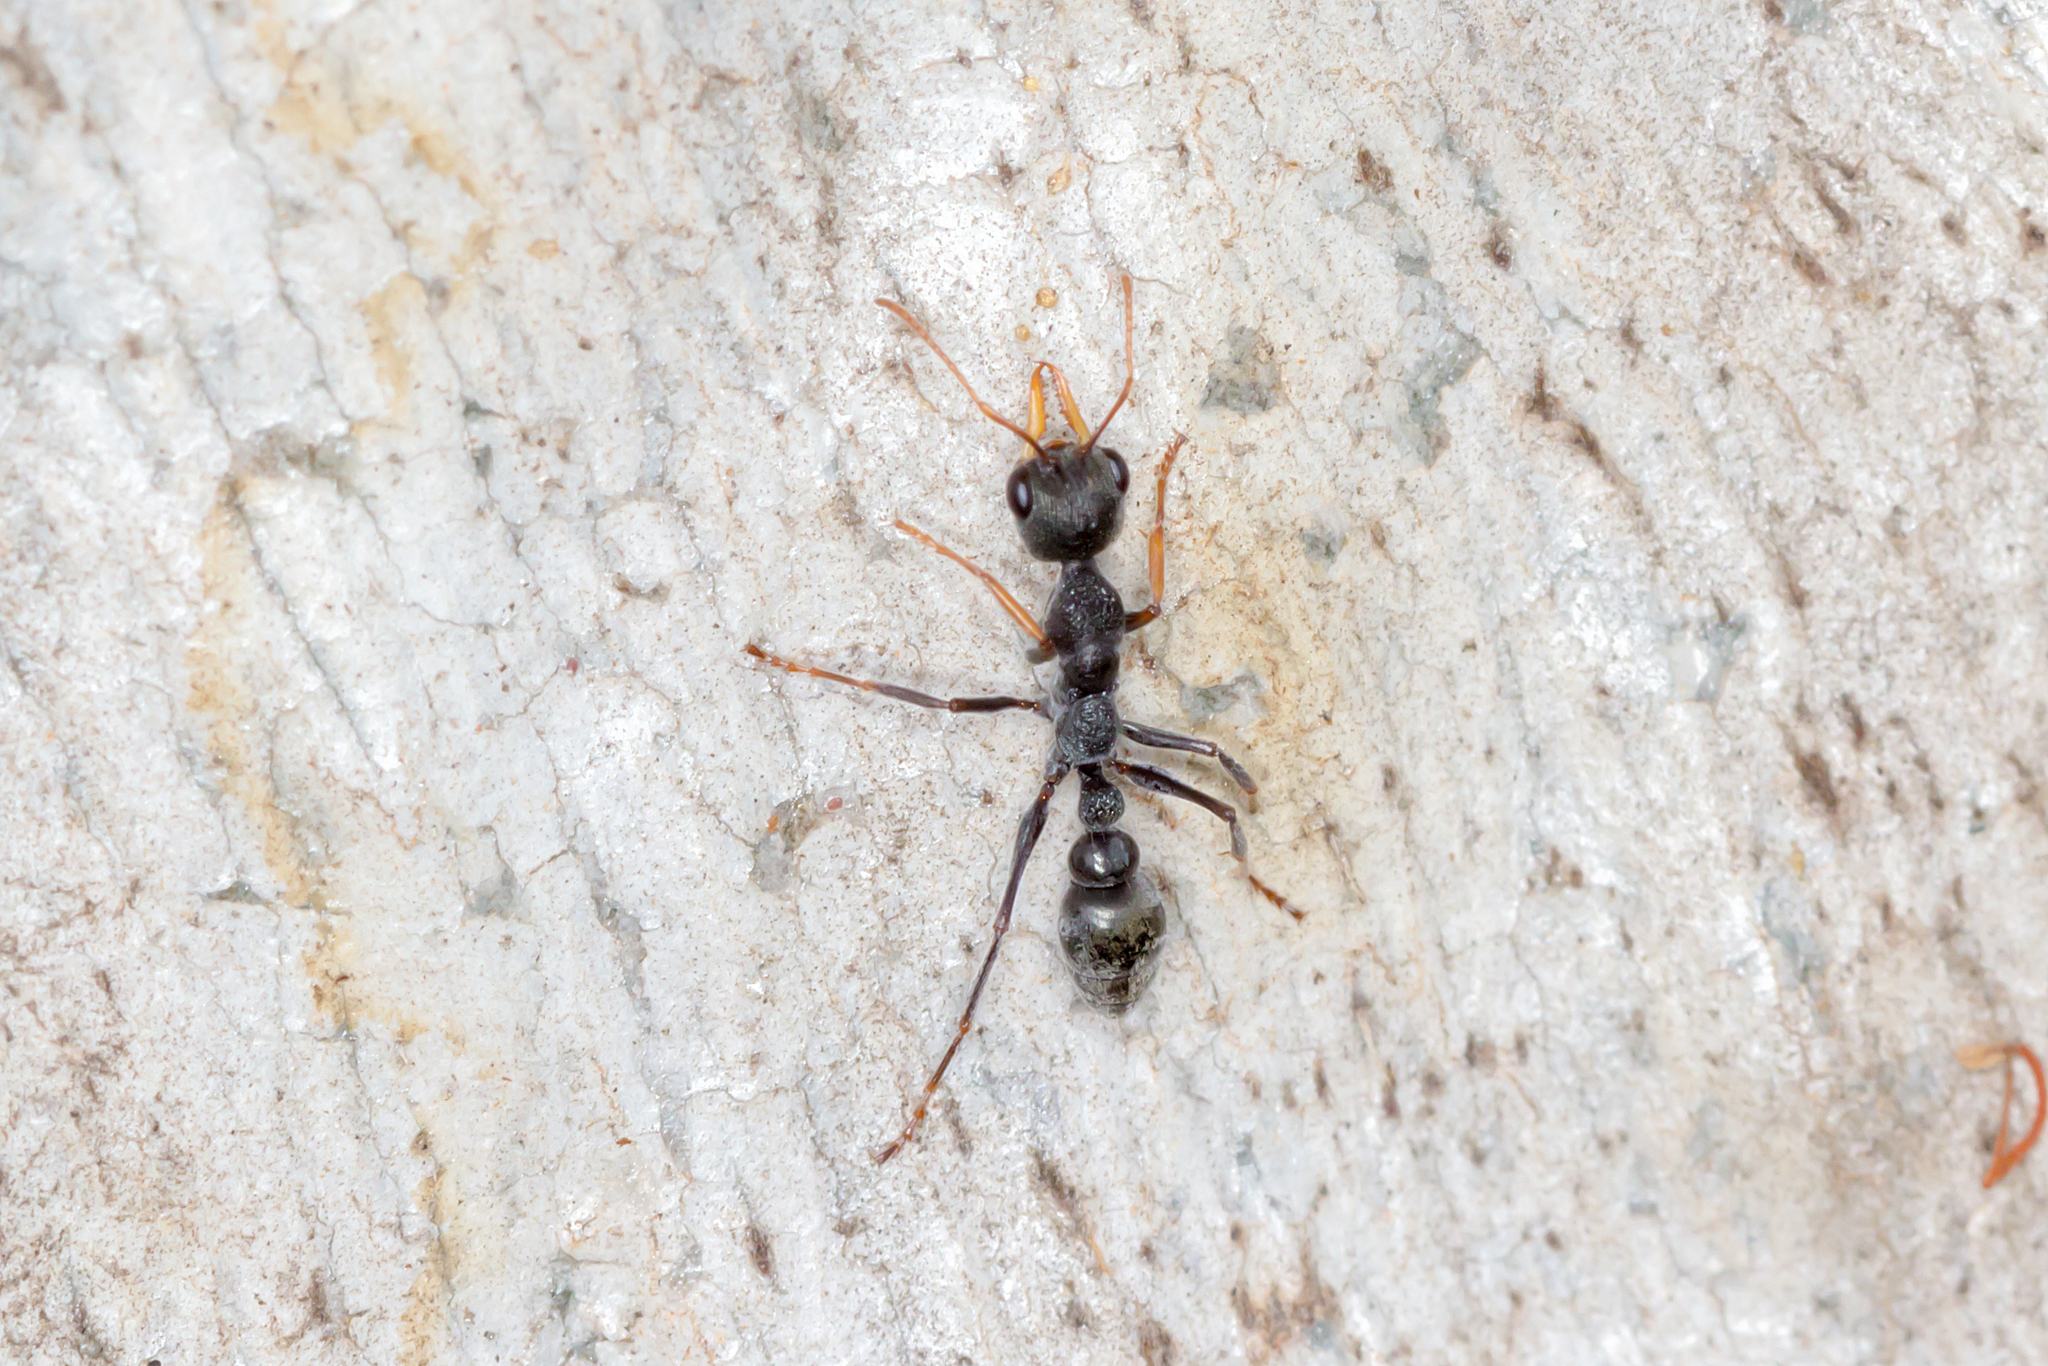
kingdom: Animalia
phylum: Arthropoda
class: Insecta
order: Hymenoptera
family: Formicidae
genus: Myrmecia
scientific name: Myrmecia urens
